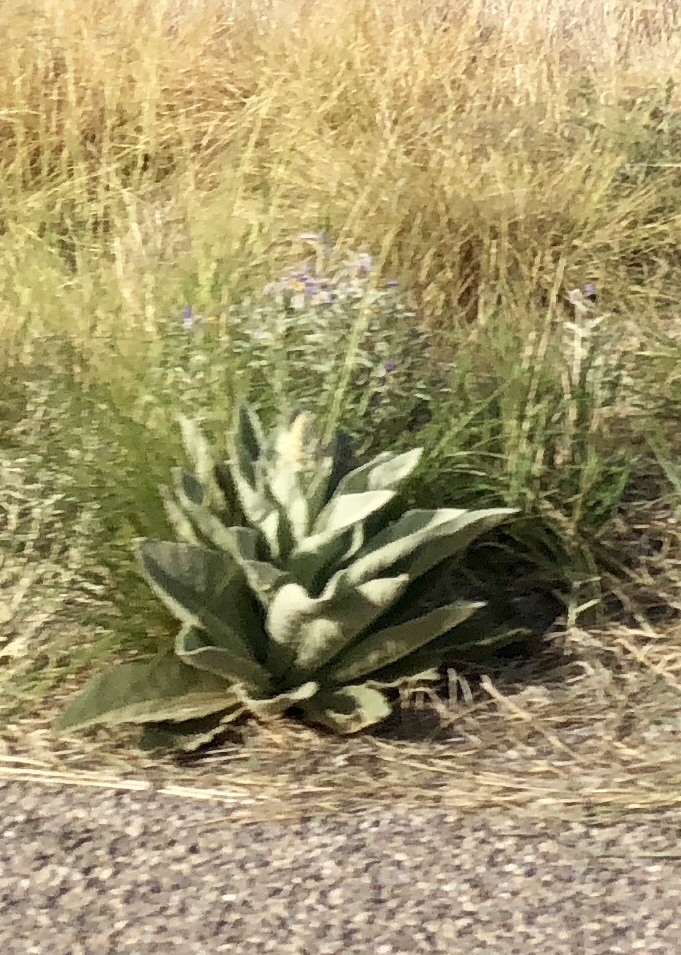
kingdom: Plantae
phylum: Tracheophyta
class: Magnoliopsida
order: Lamiales
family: Scrophulariaceae
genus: Verbascum
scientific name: Verbascum thapsus
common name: Common mullein
